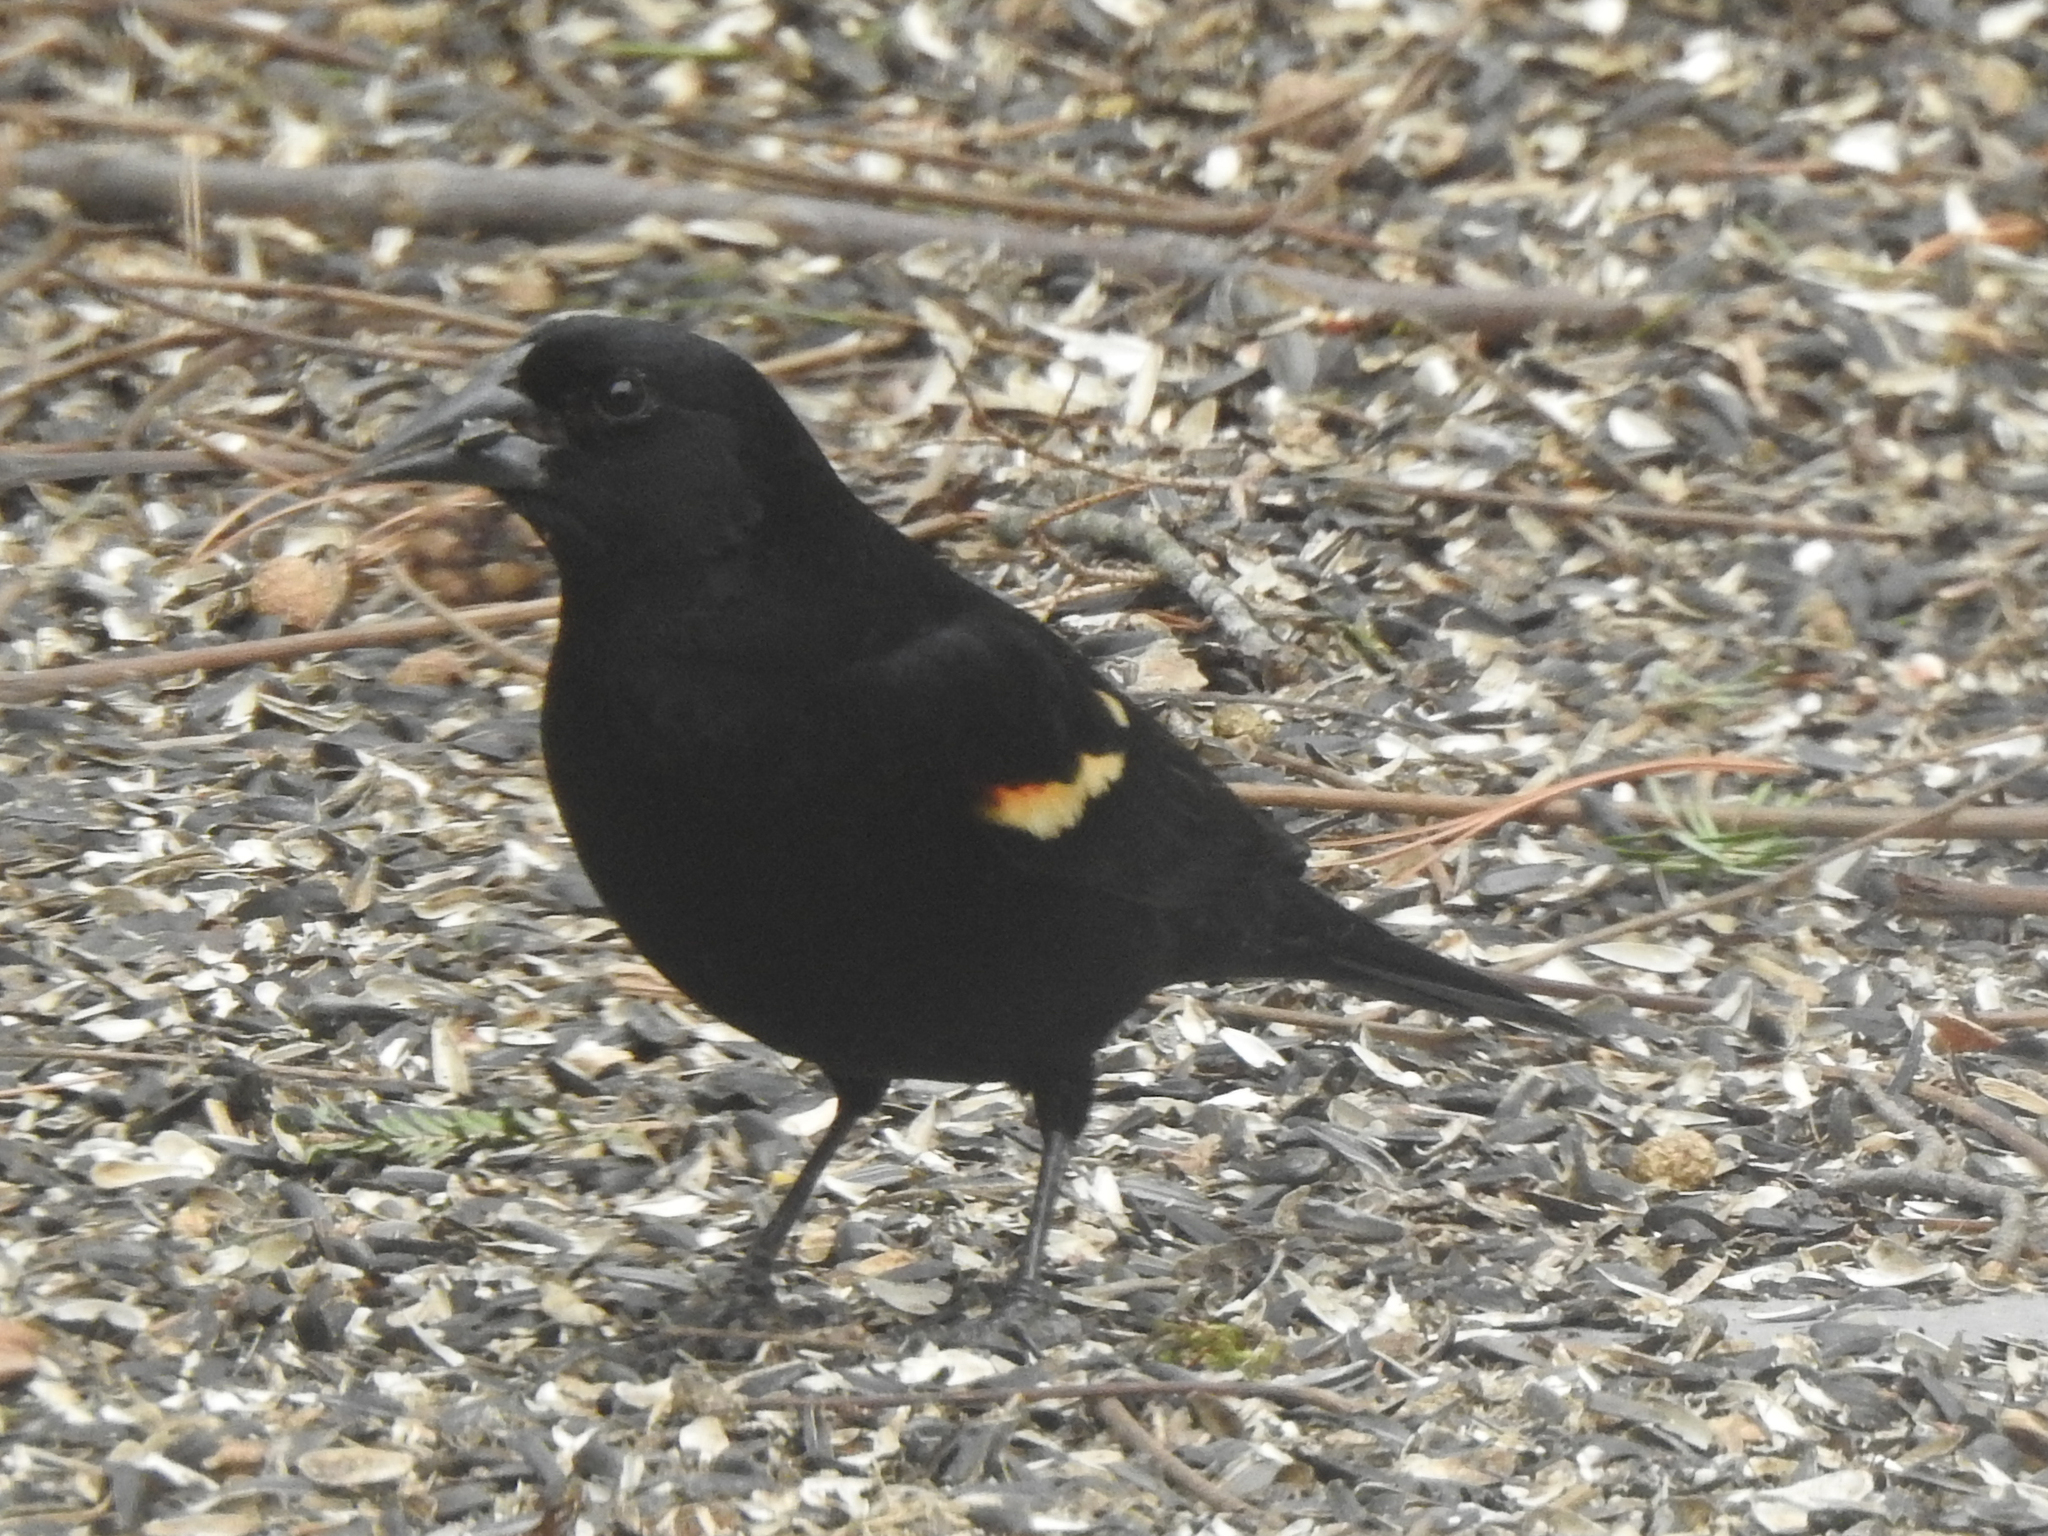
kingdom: Animalia
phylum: Chordata
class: Aves
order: Passeriformes
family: Icteridae
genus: Agelaius
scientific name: Agelaius phoeniceus
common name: Red-winged blackbird
